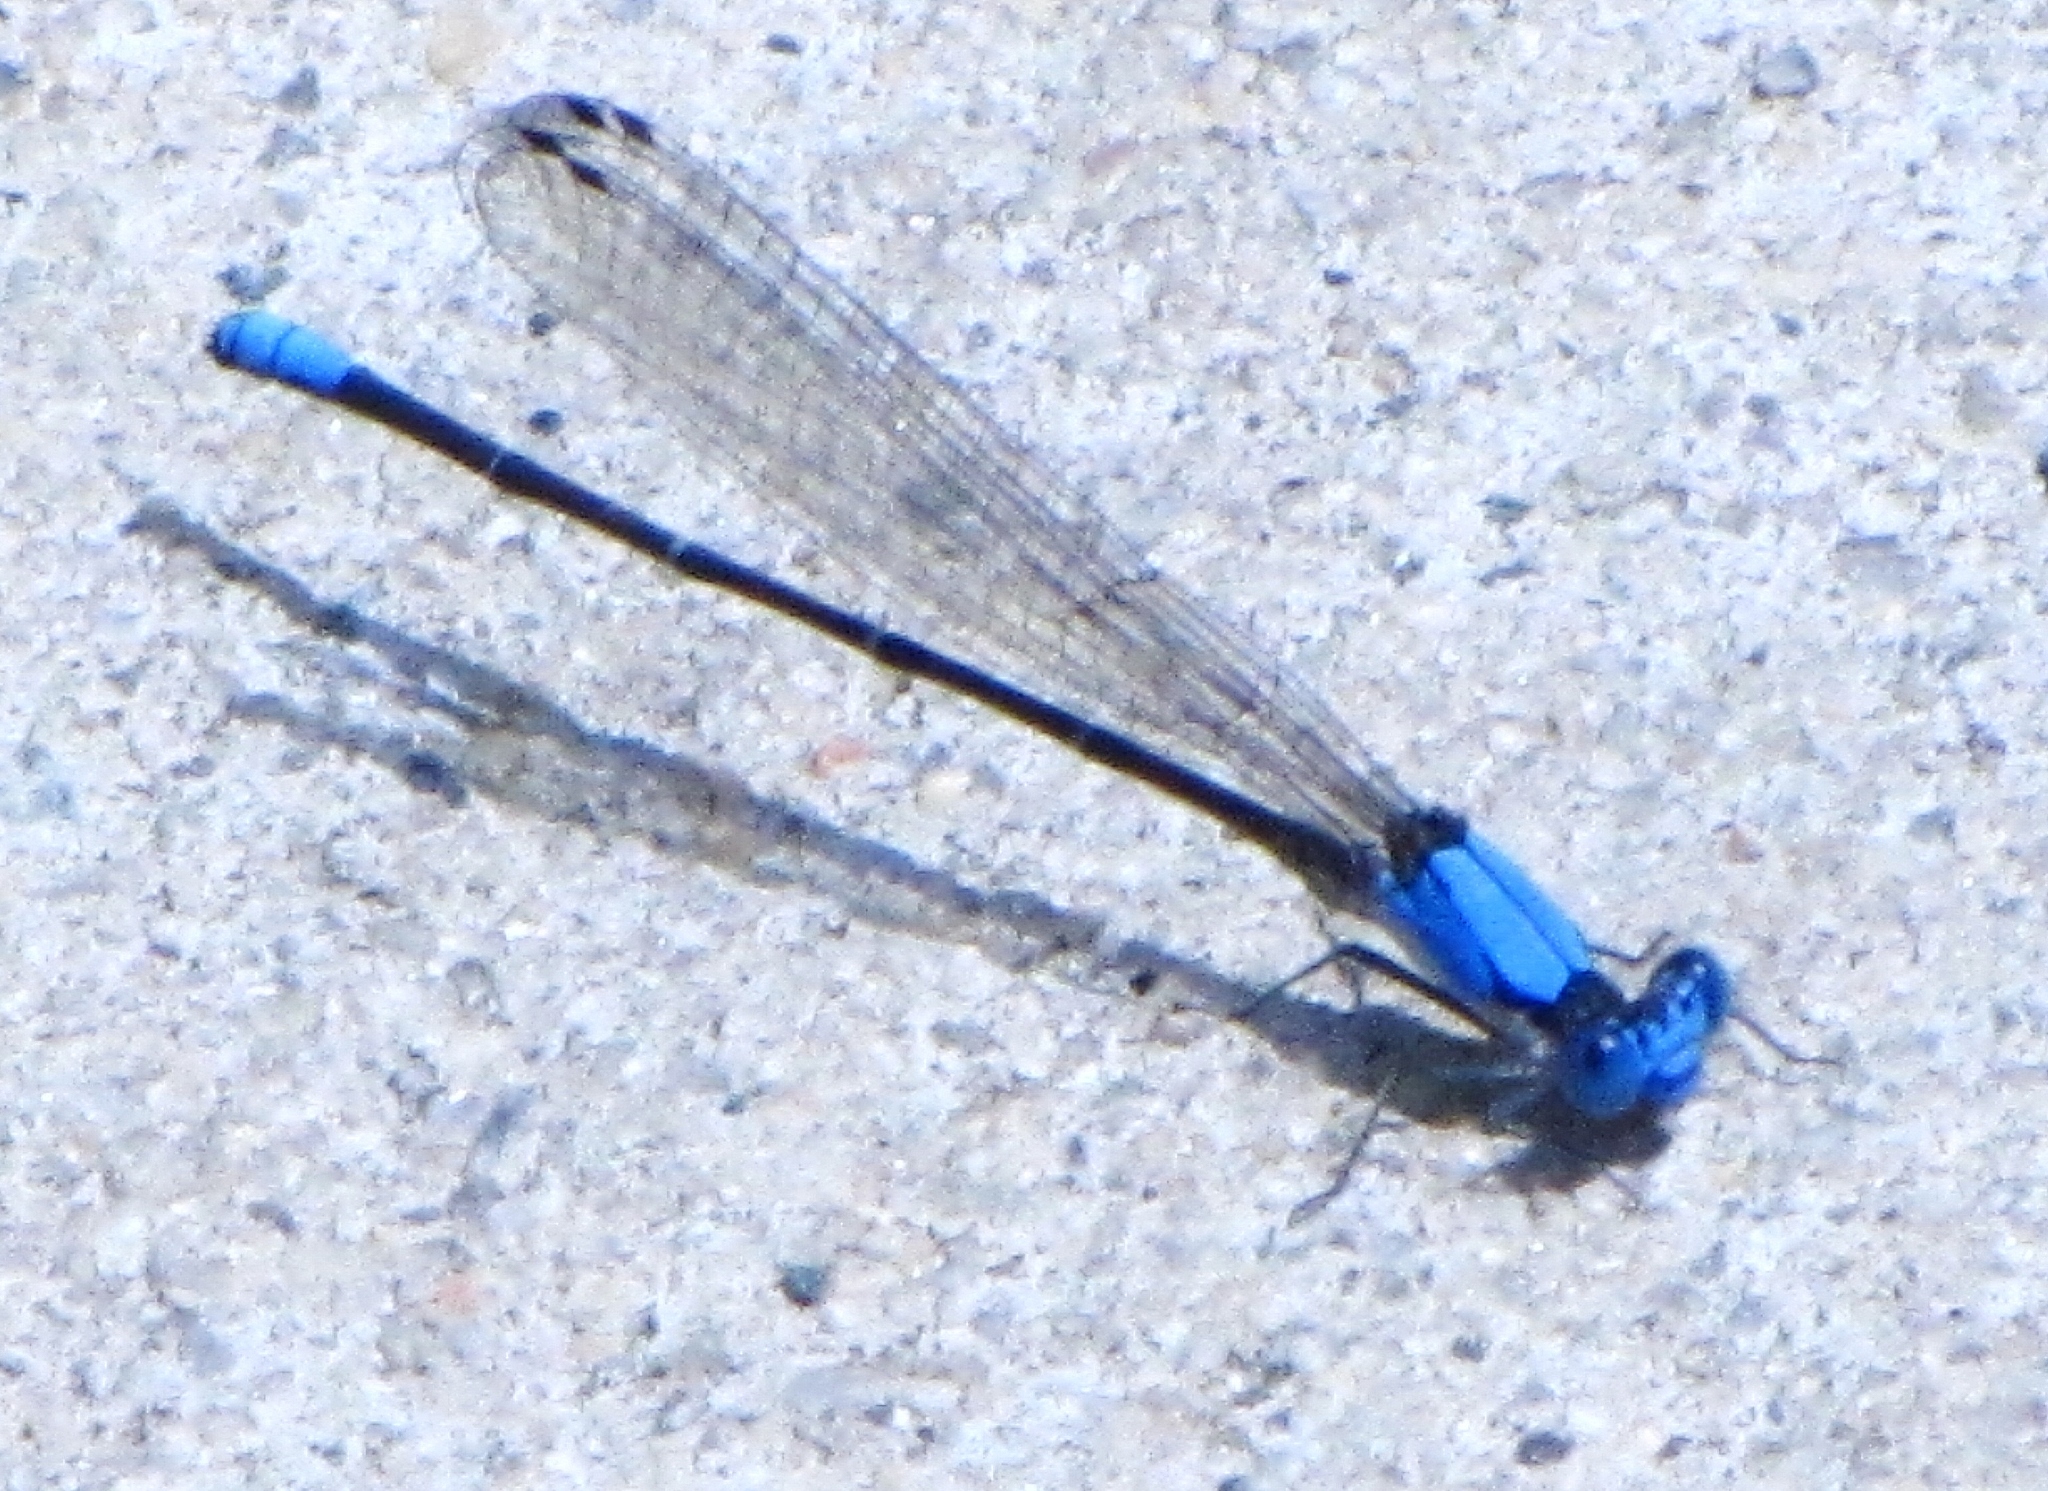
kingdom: Animalia
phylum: Arthropoda
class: Insecta
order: Odonata
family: Coenagrionidae
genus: Argia
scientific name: Argia apicalis
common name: Blue-fronted dancer
